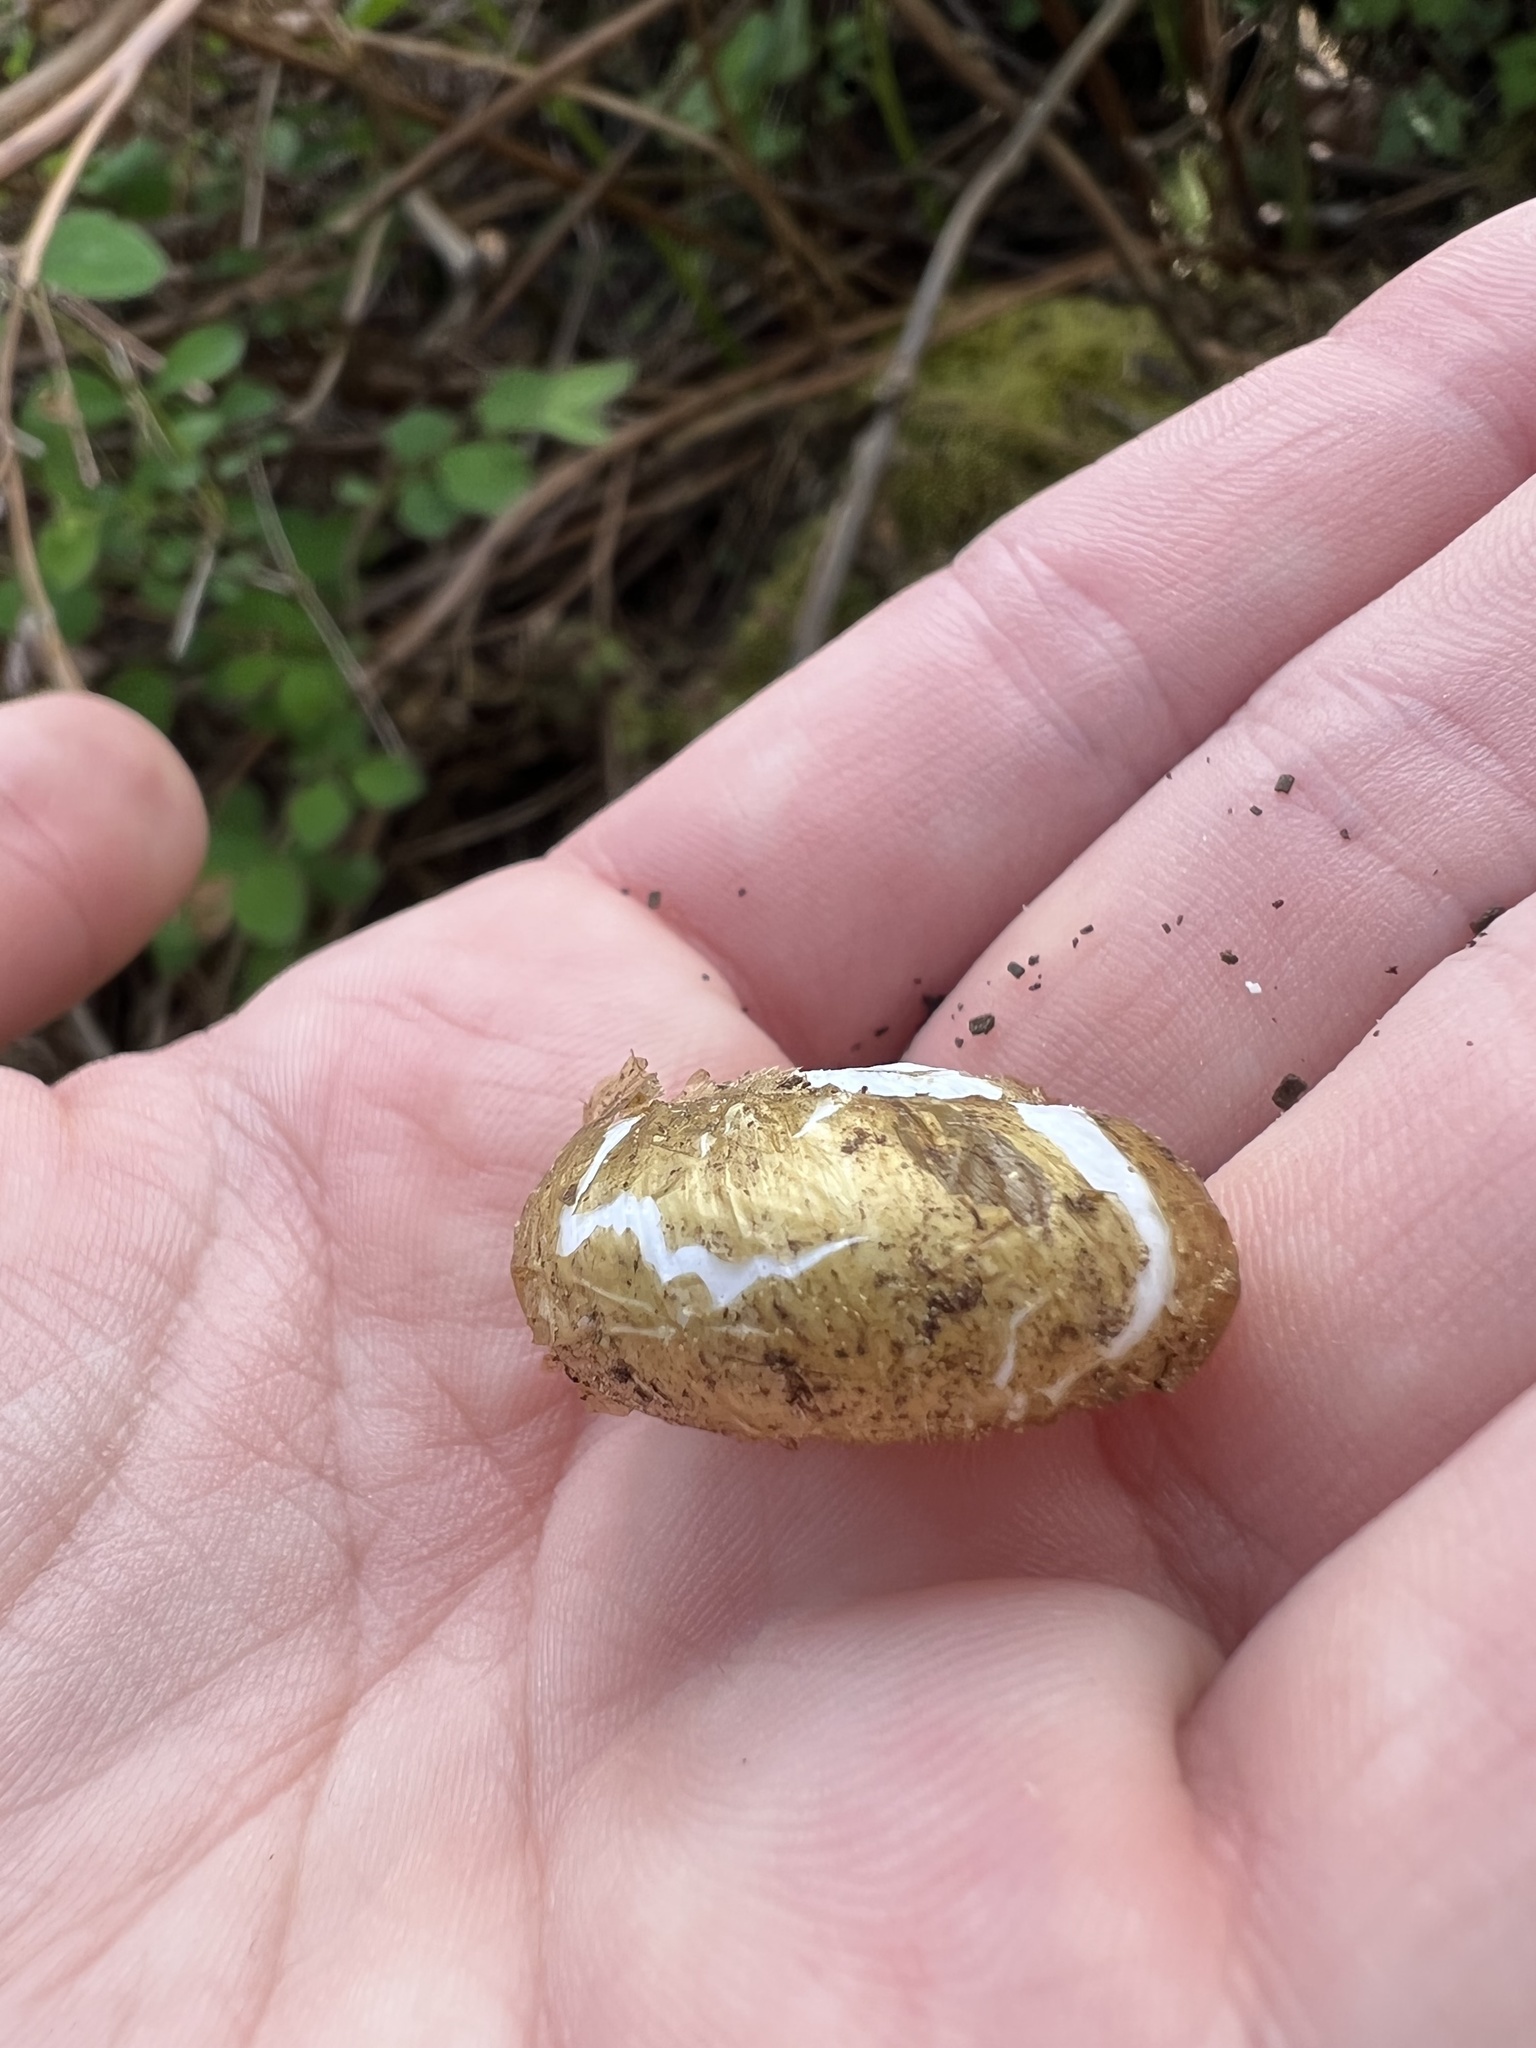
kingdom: Animalia
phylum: Mollusca
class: Gastropoda
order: Stylommatophora
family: Haplotrematidae
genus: Haplotrema
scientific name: Haplotrema vancouverense
